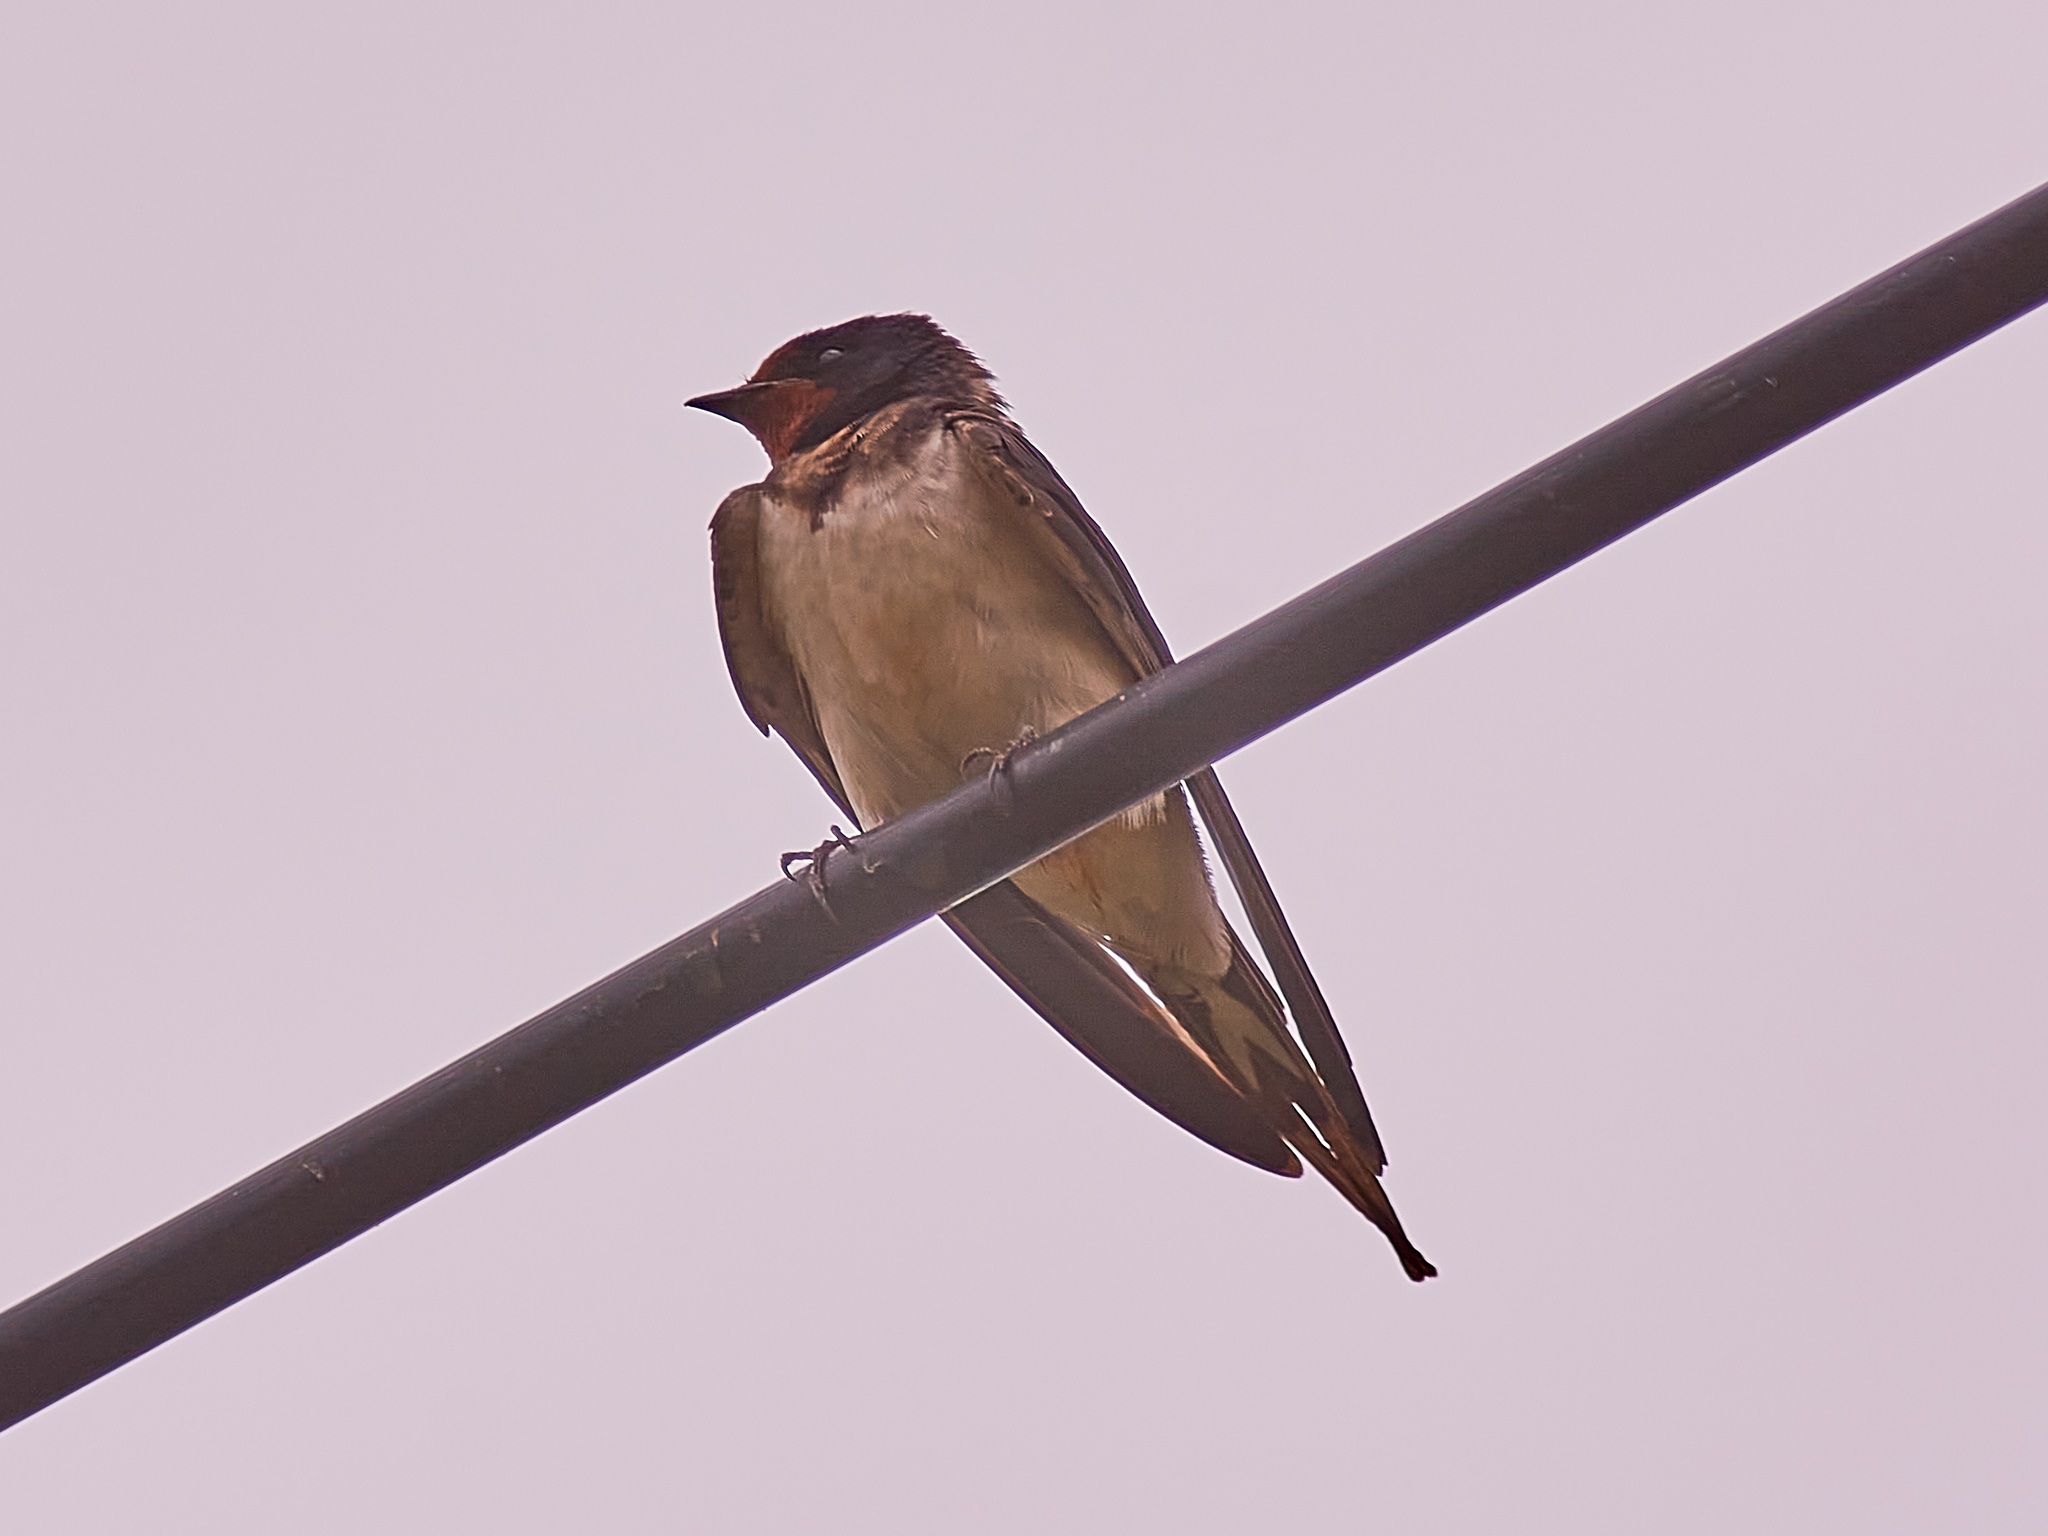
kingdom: Animalia
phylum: Chordata
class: Aves
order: Passeriformes
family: Hirundinidae
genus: Hirundo
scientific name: Hirundo rustica
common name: Barn swallow
